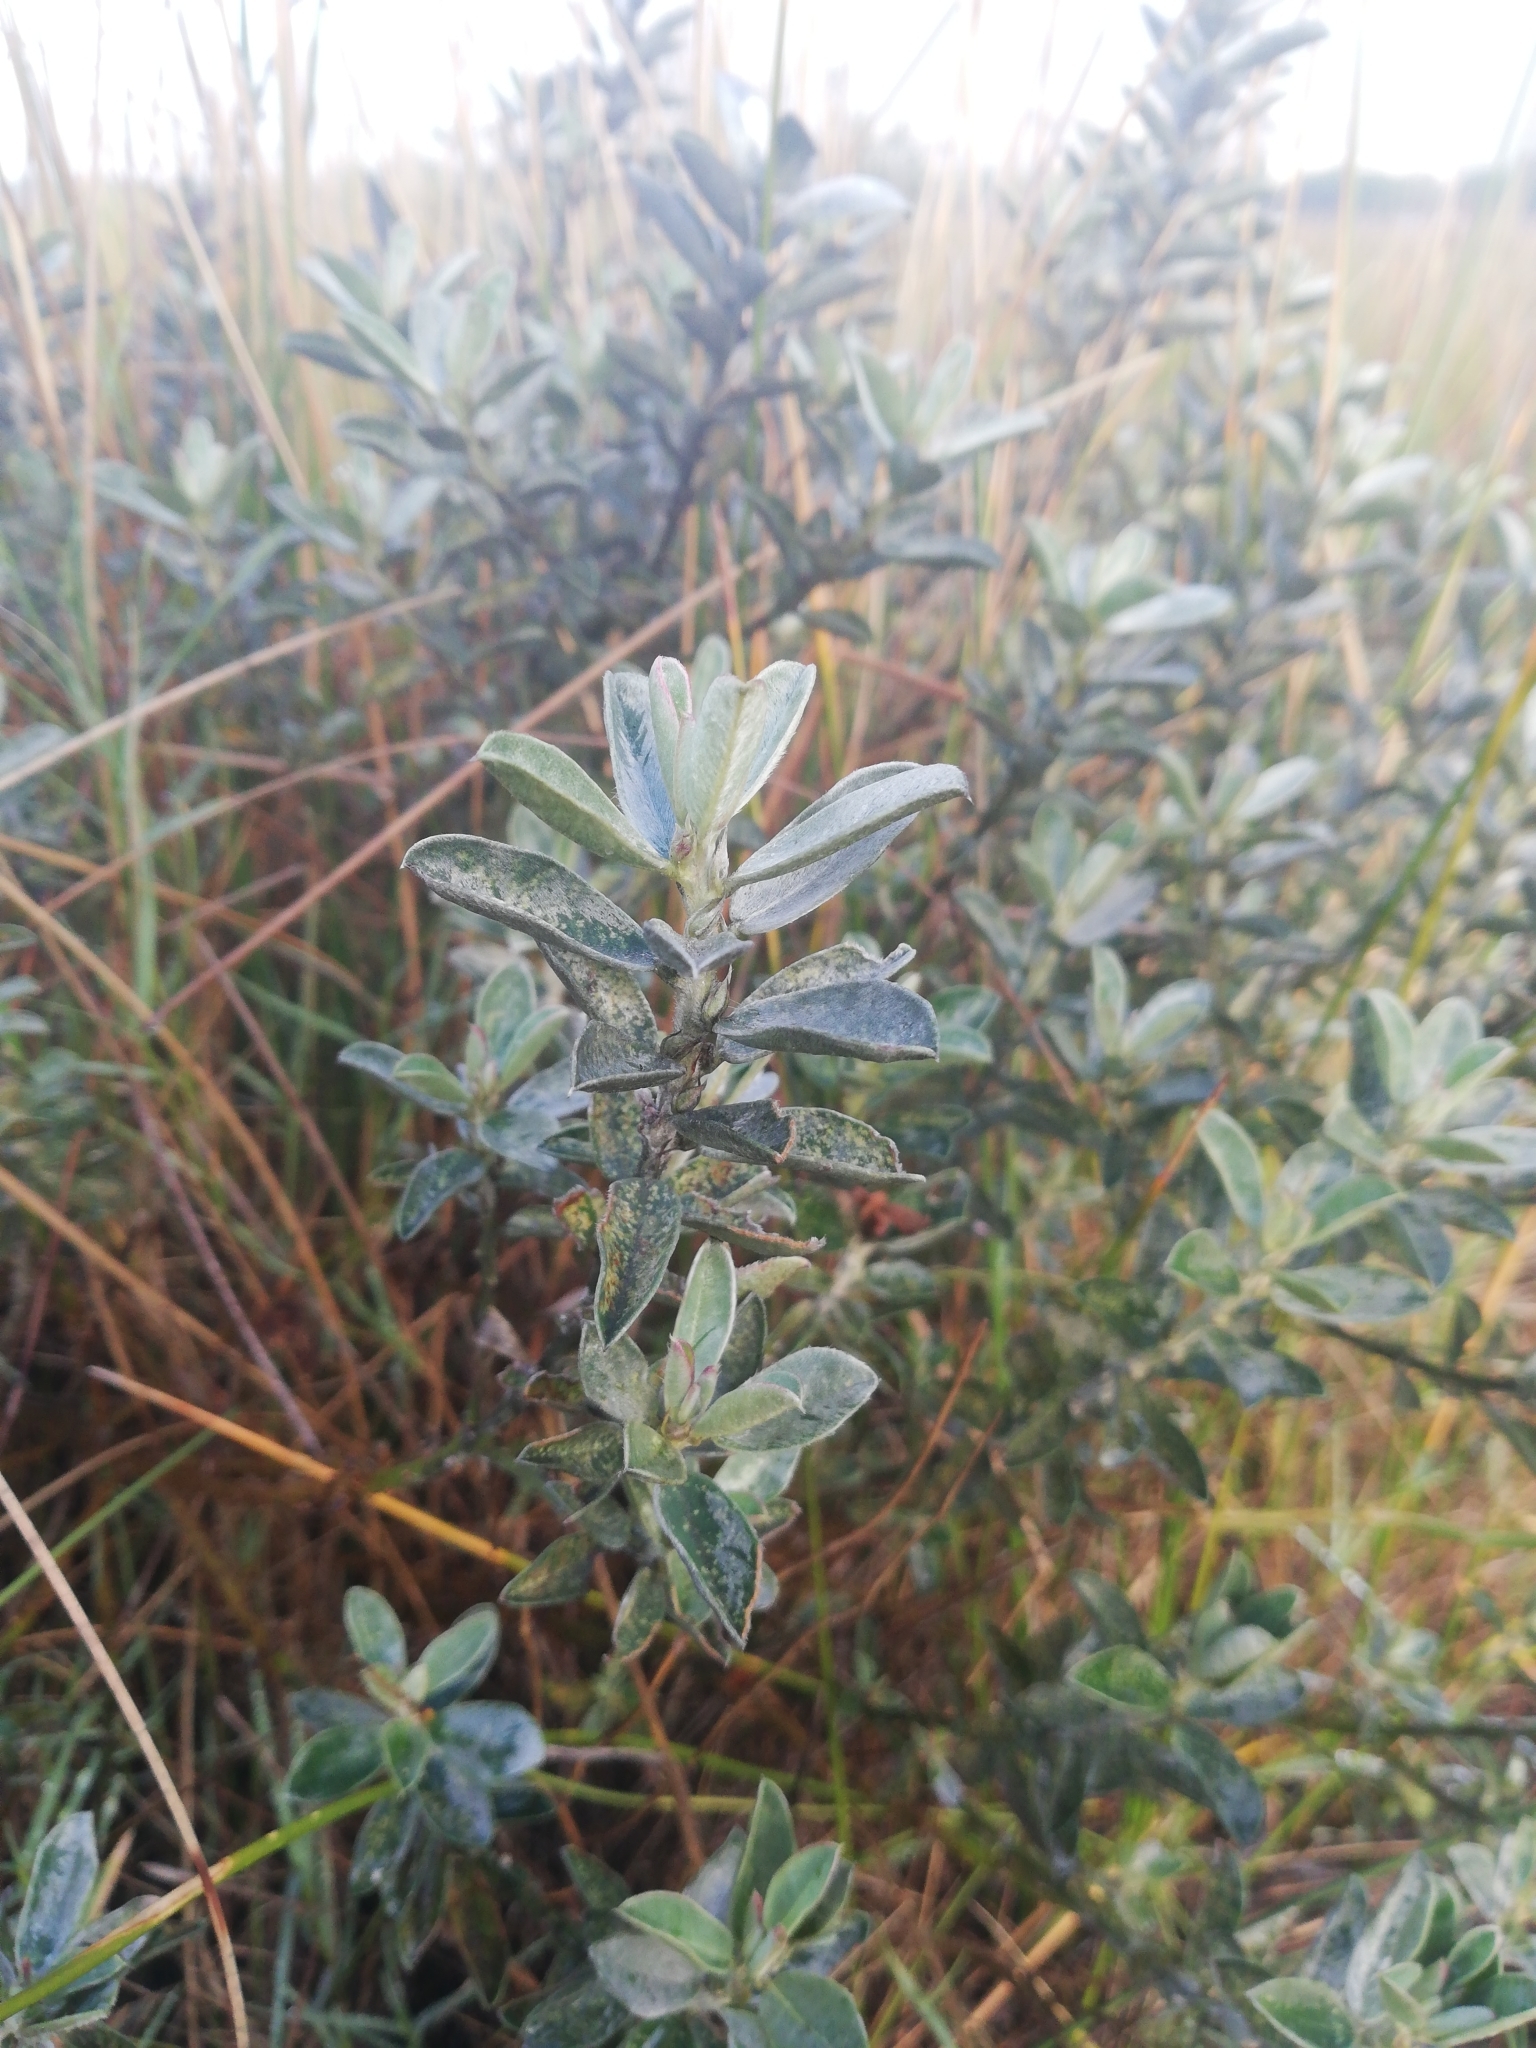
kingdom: Plantae
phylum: Tracheophyta
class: Magnoliopsida
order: Fabales
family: Fabaceae
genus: Podalyria
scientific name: Podalyria sericea
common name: Silver podalyria
